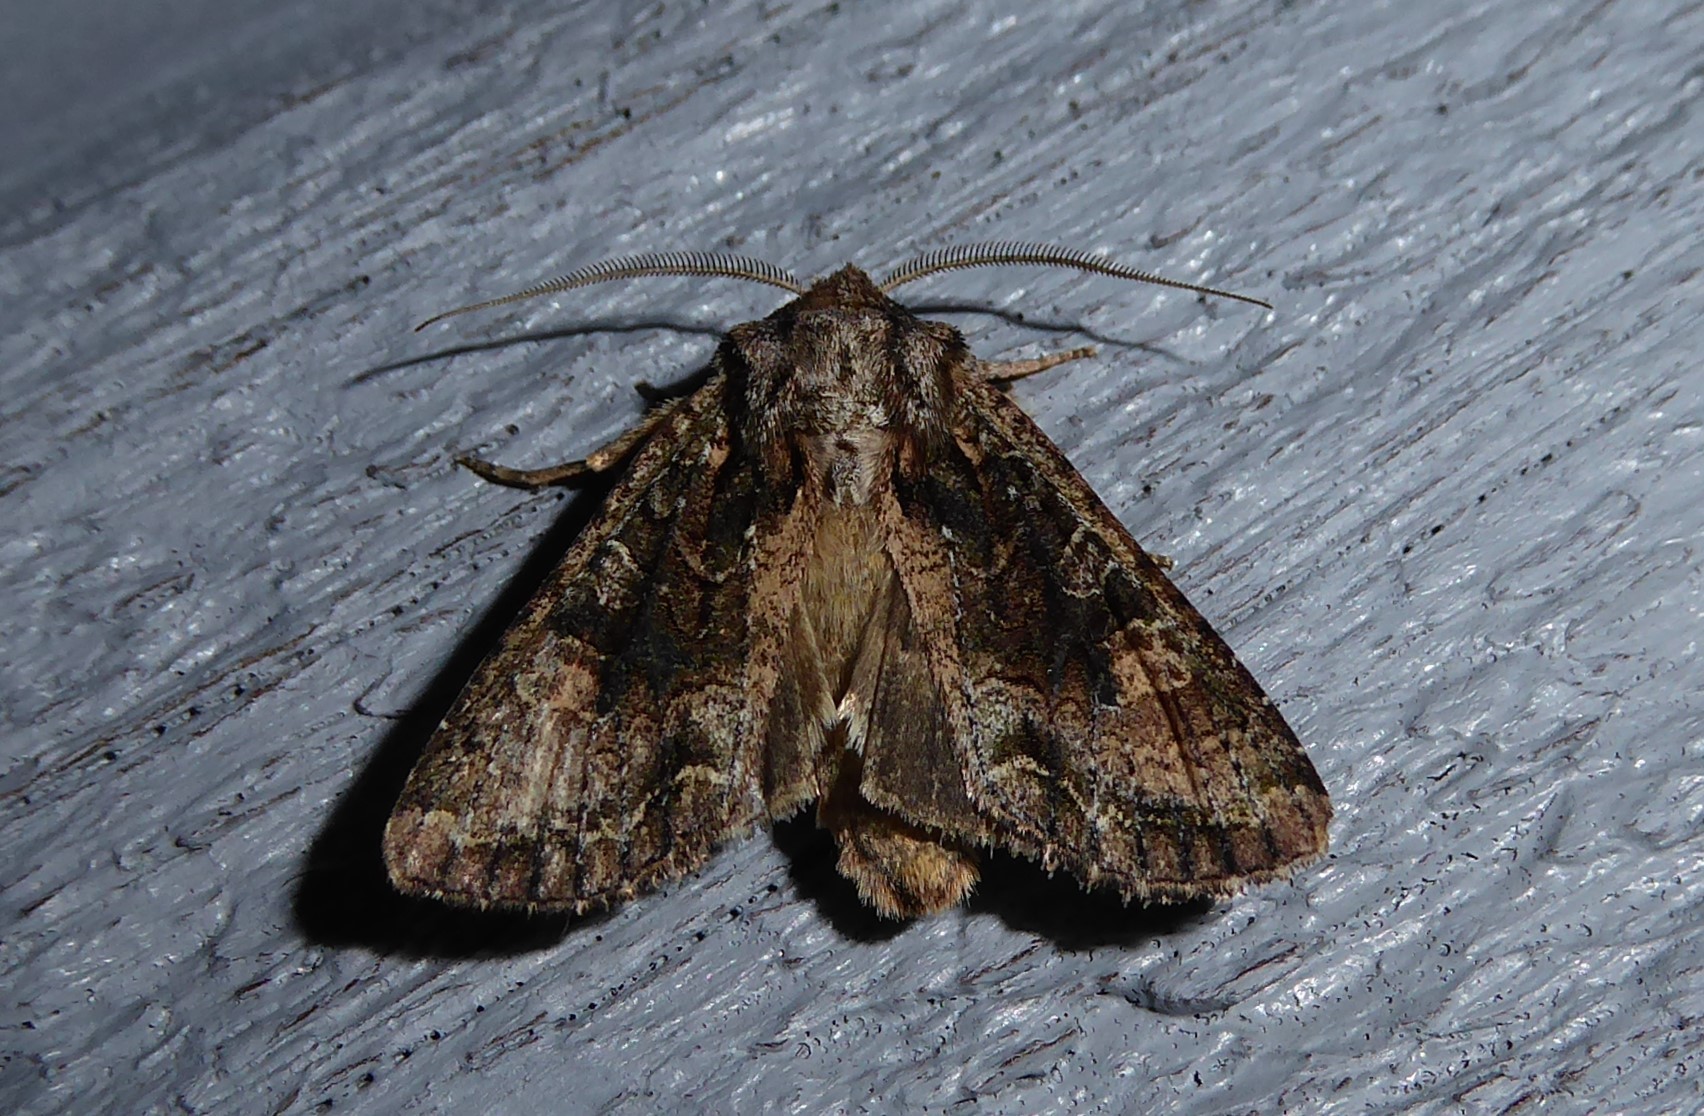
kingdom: Animalia
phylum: Arthropoda
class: Insecta
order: Lepidoptera
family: Noctuidae
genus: Ichneutica
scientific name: Ichneutica mutans
